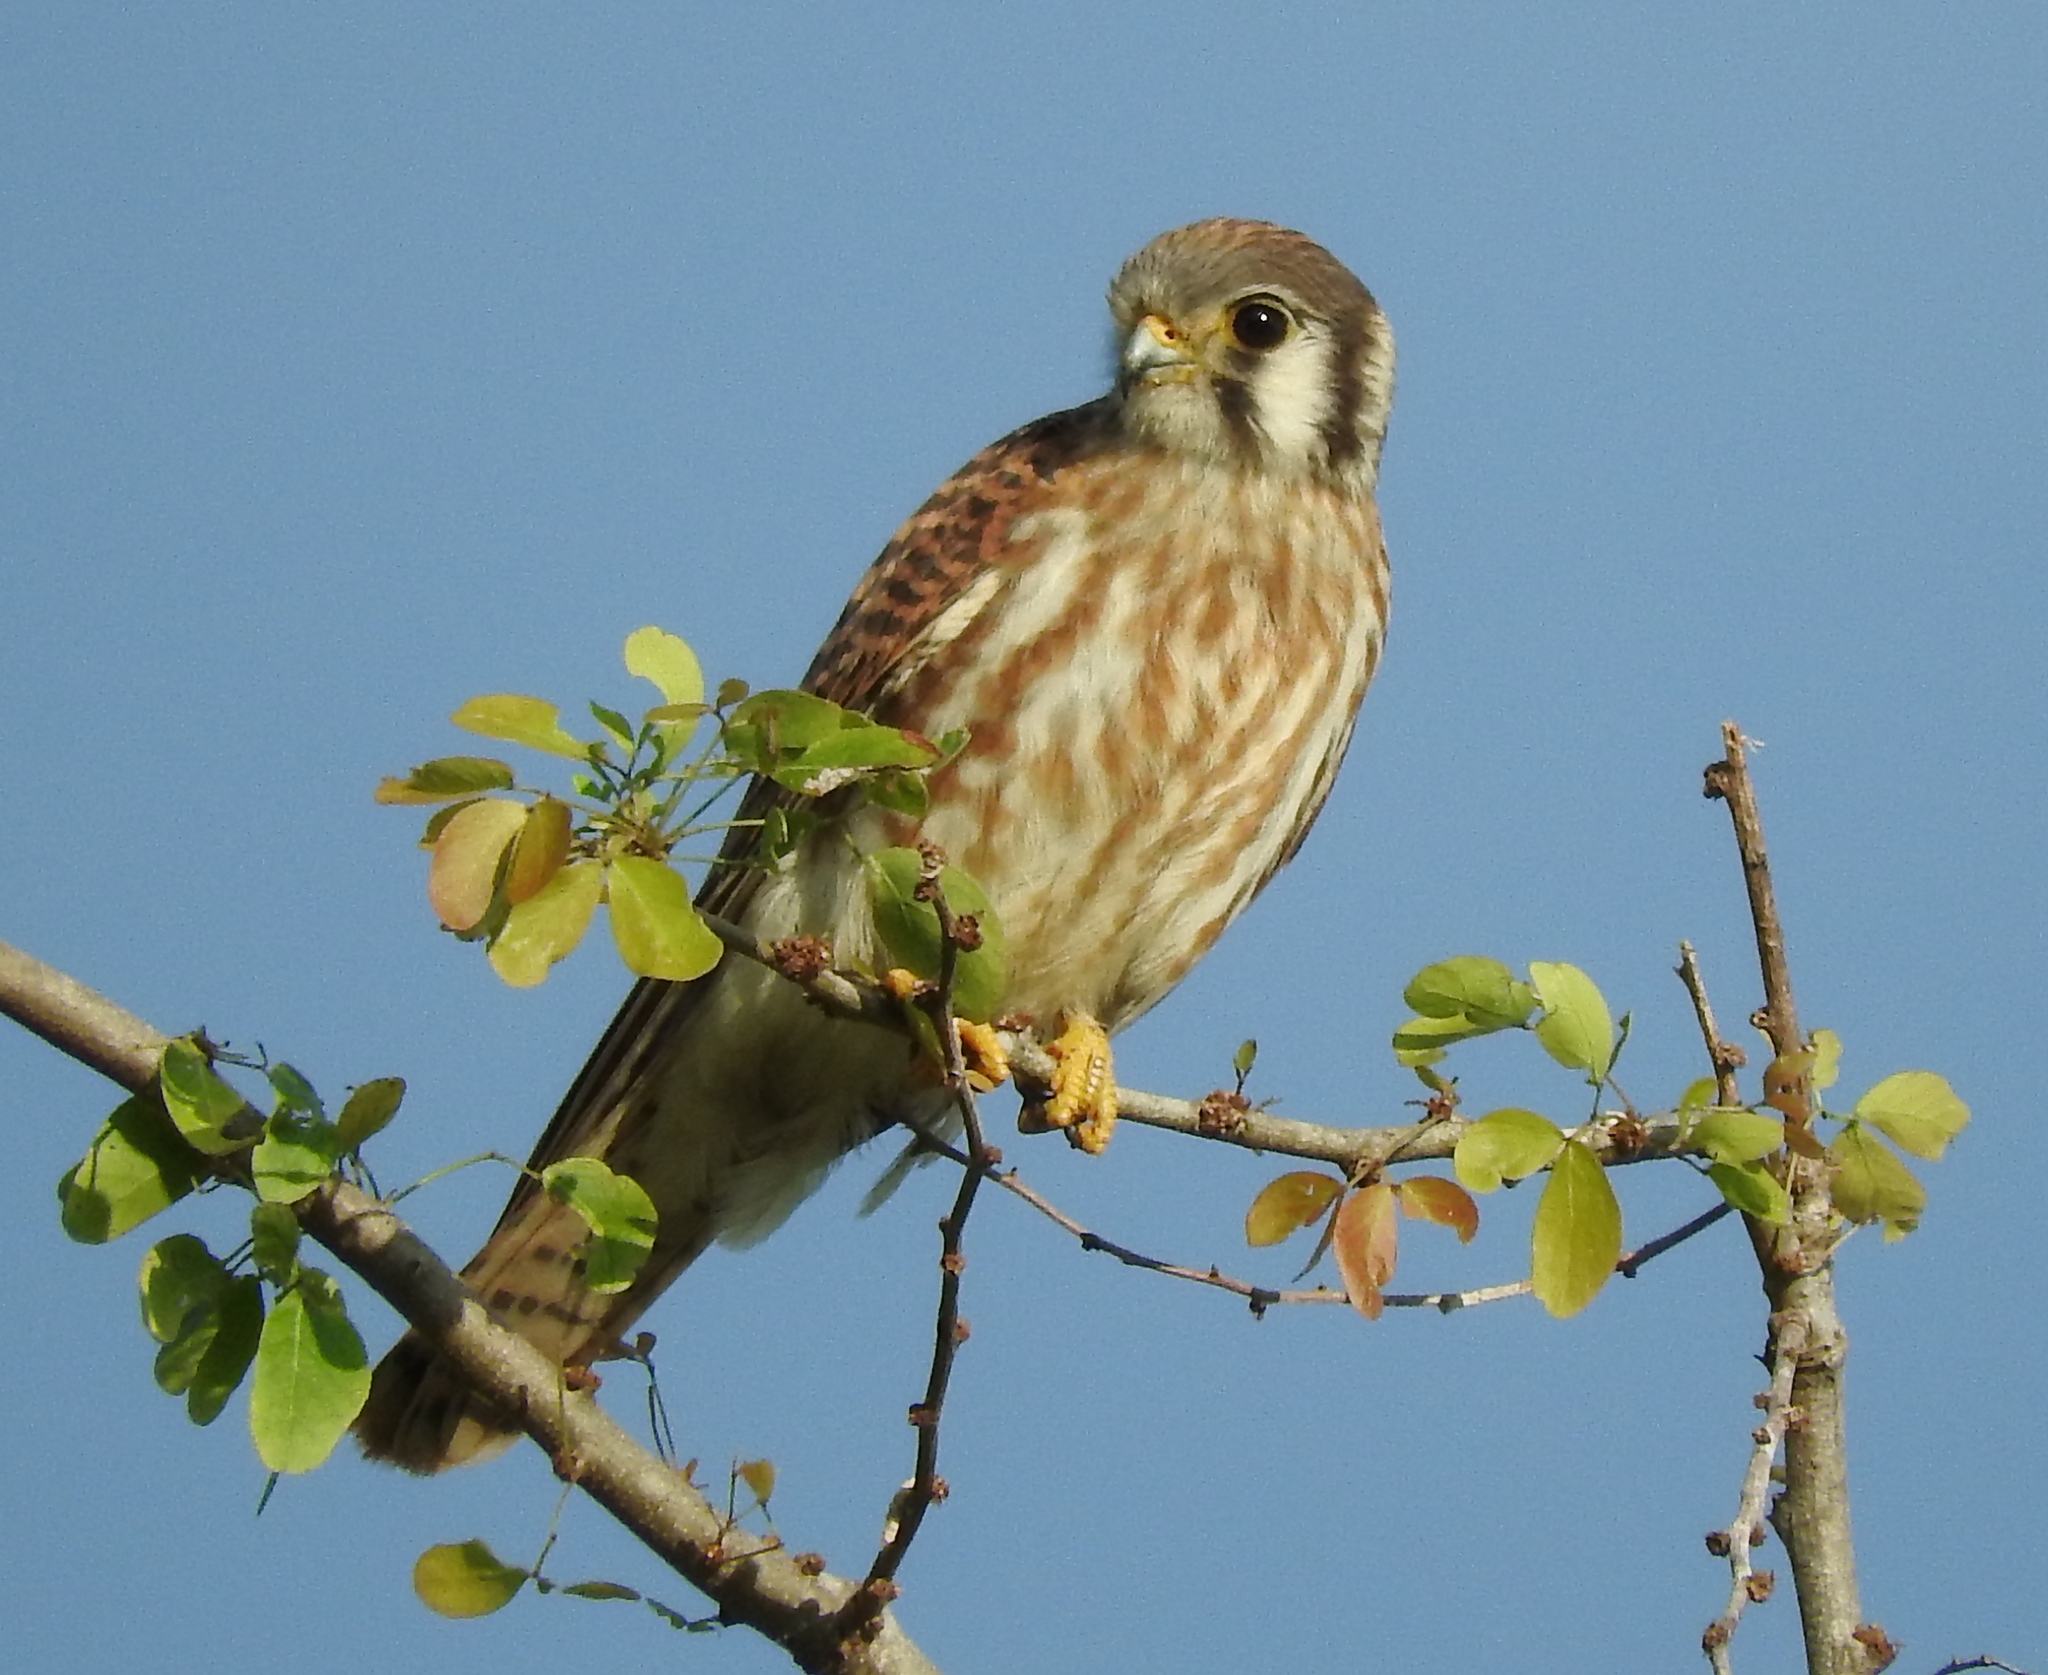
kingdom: Animalia
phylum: Chordata
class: Aves
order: Falconiformes
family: Falconidae
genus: Falco
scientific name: Falco sparverius
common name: American kestrel
